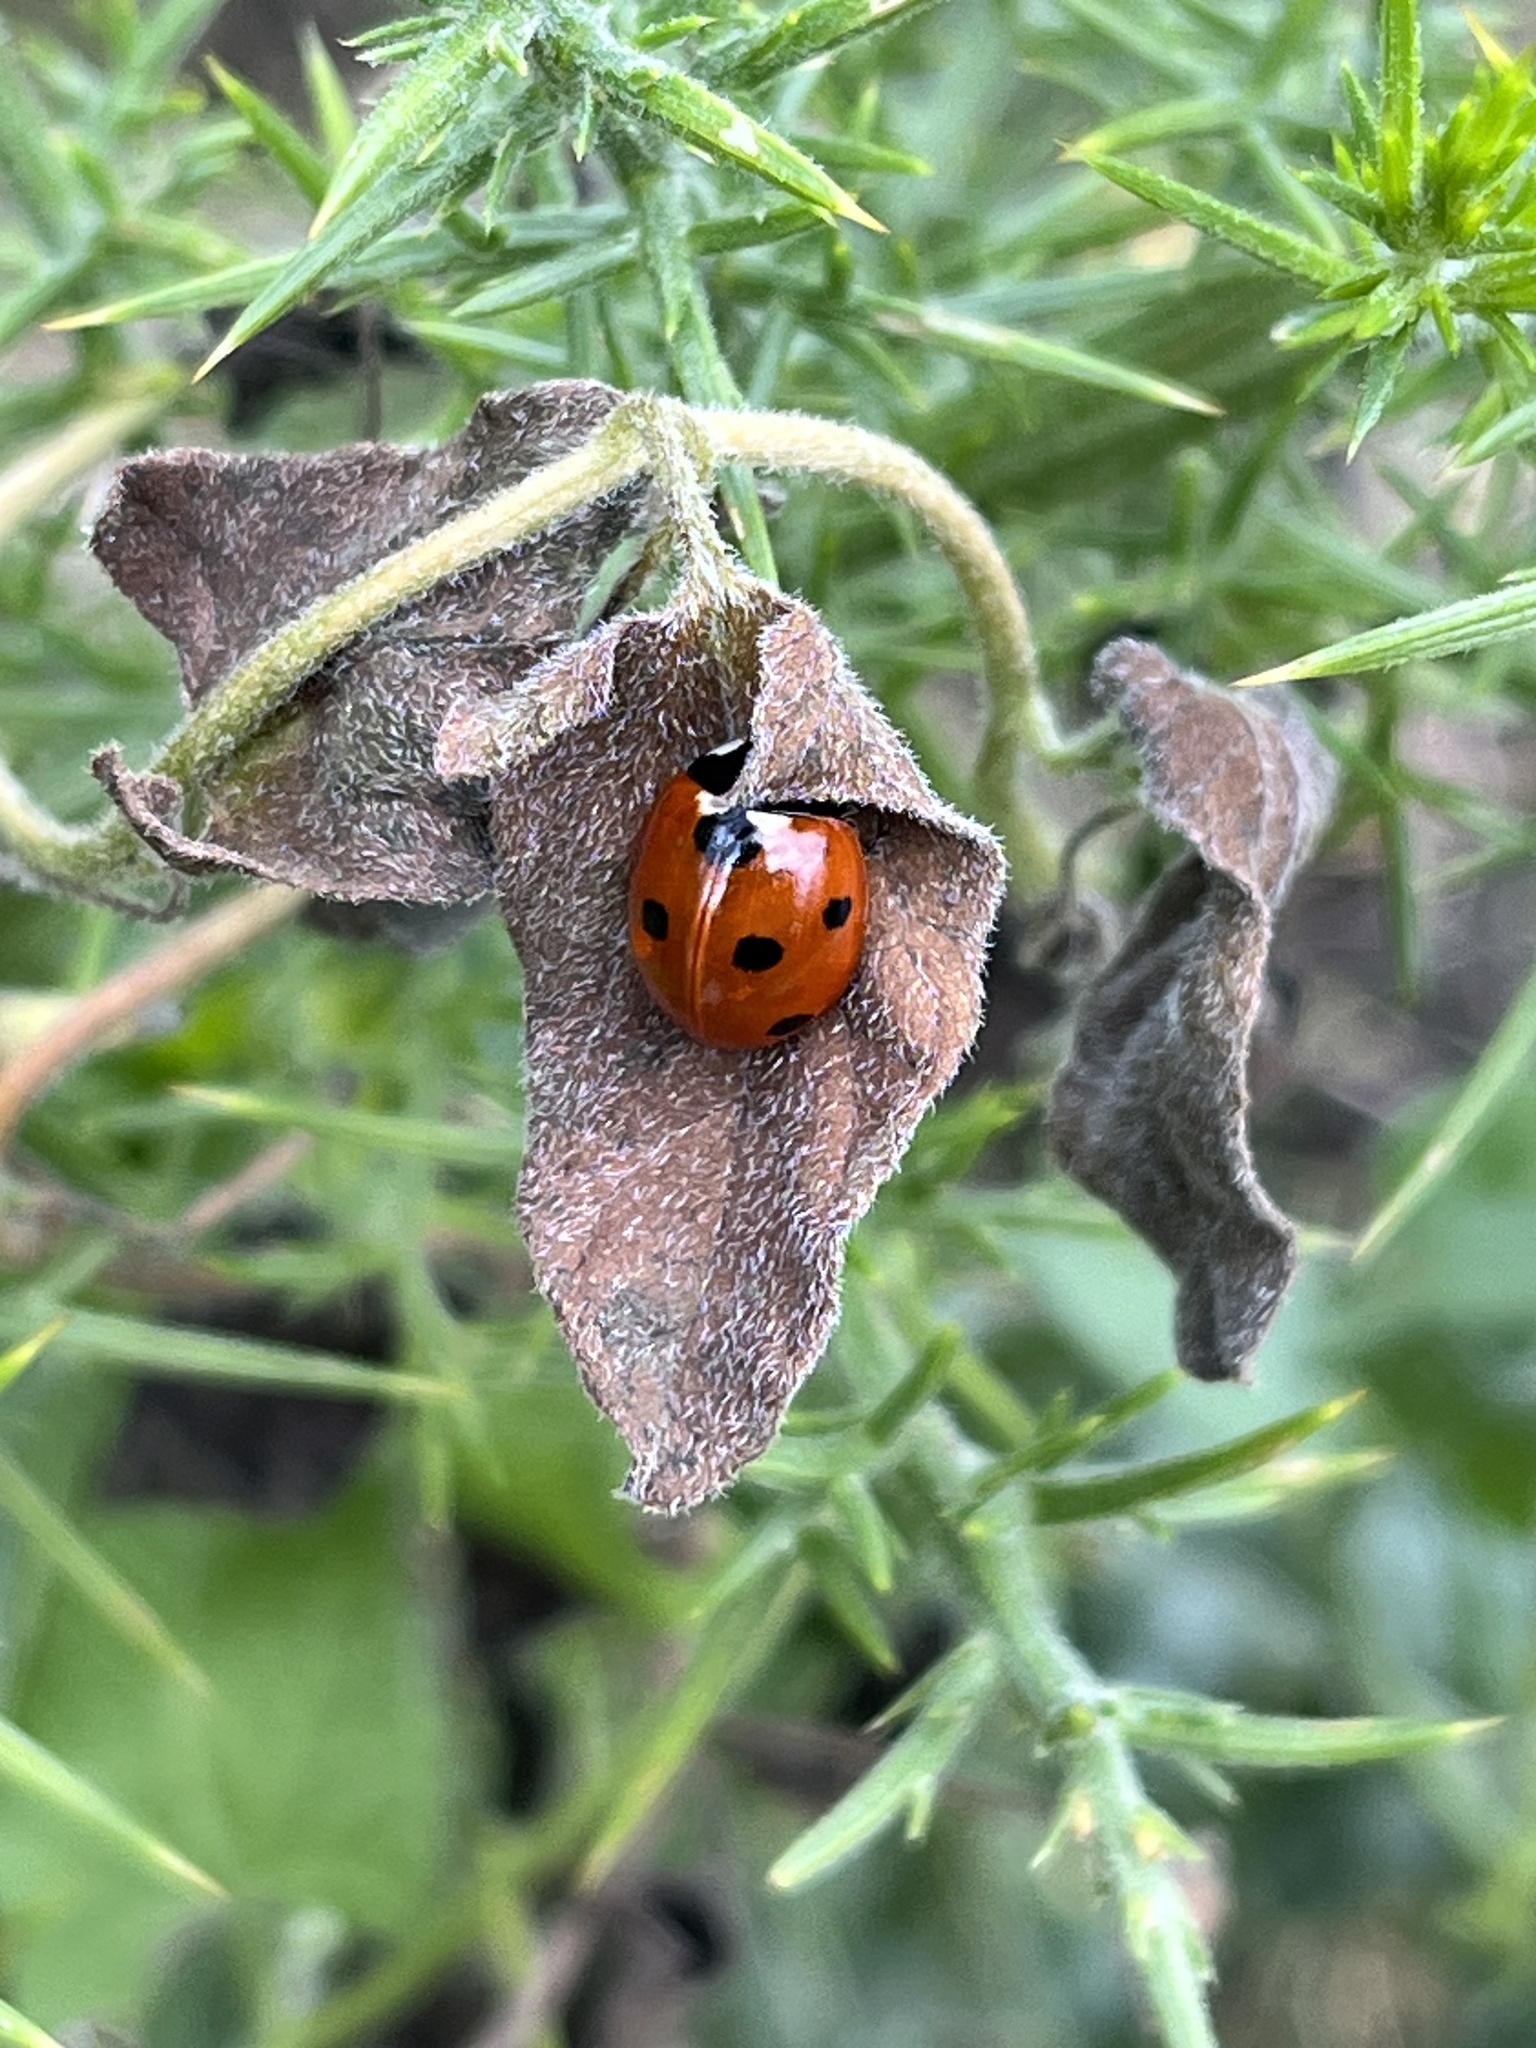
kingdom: Animalia
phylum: Arthropoda
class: Insecta
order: Coleoptera
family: Coccinellidae
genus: Coccinella
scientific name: Coccinella septempunctata
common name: Sevenspotted lady beetle
